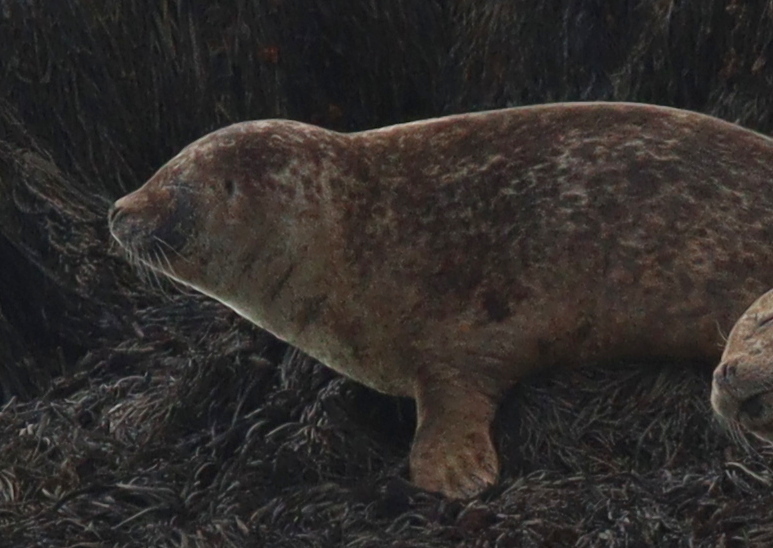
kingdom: Animalia
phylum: Chordata
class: Mammalia
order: Carnivora
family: Phocidae
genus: Phoca
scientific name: Phoca vitulina
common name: Harbor seal
